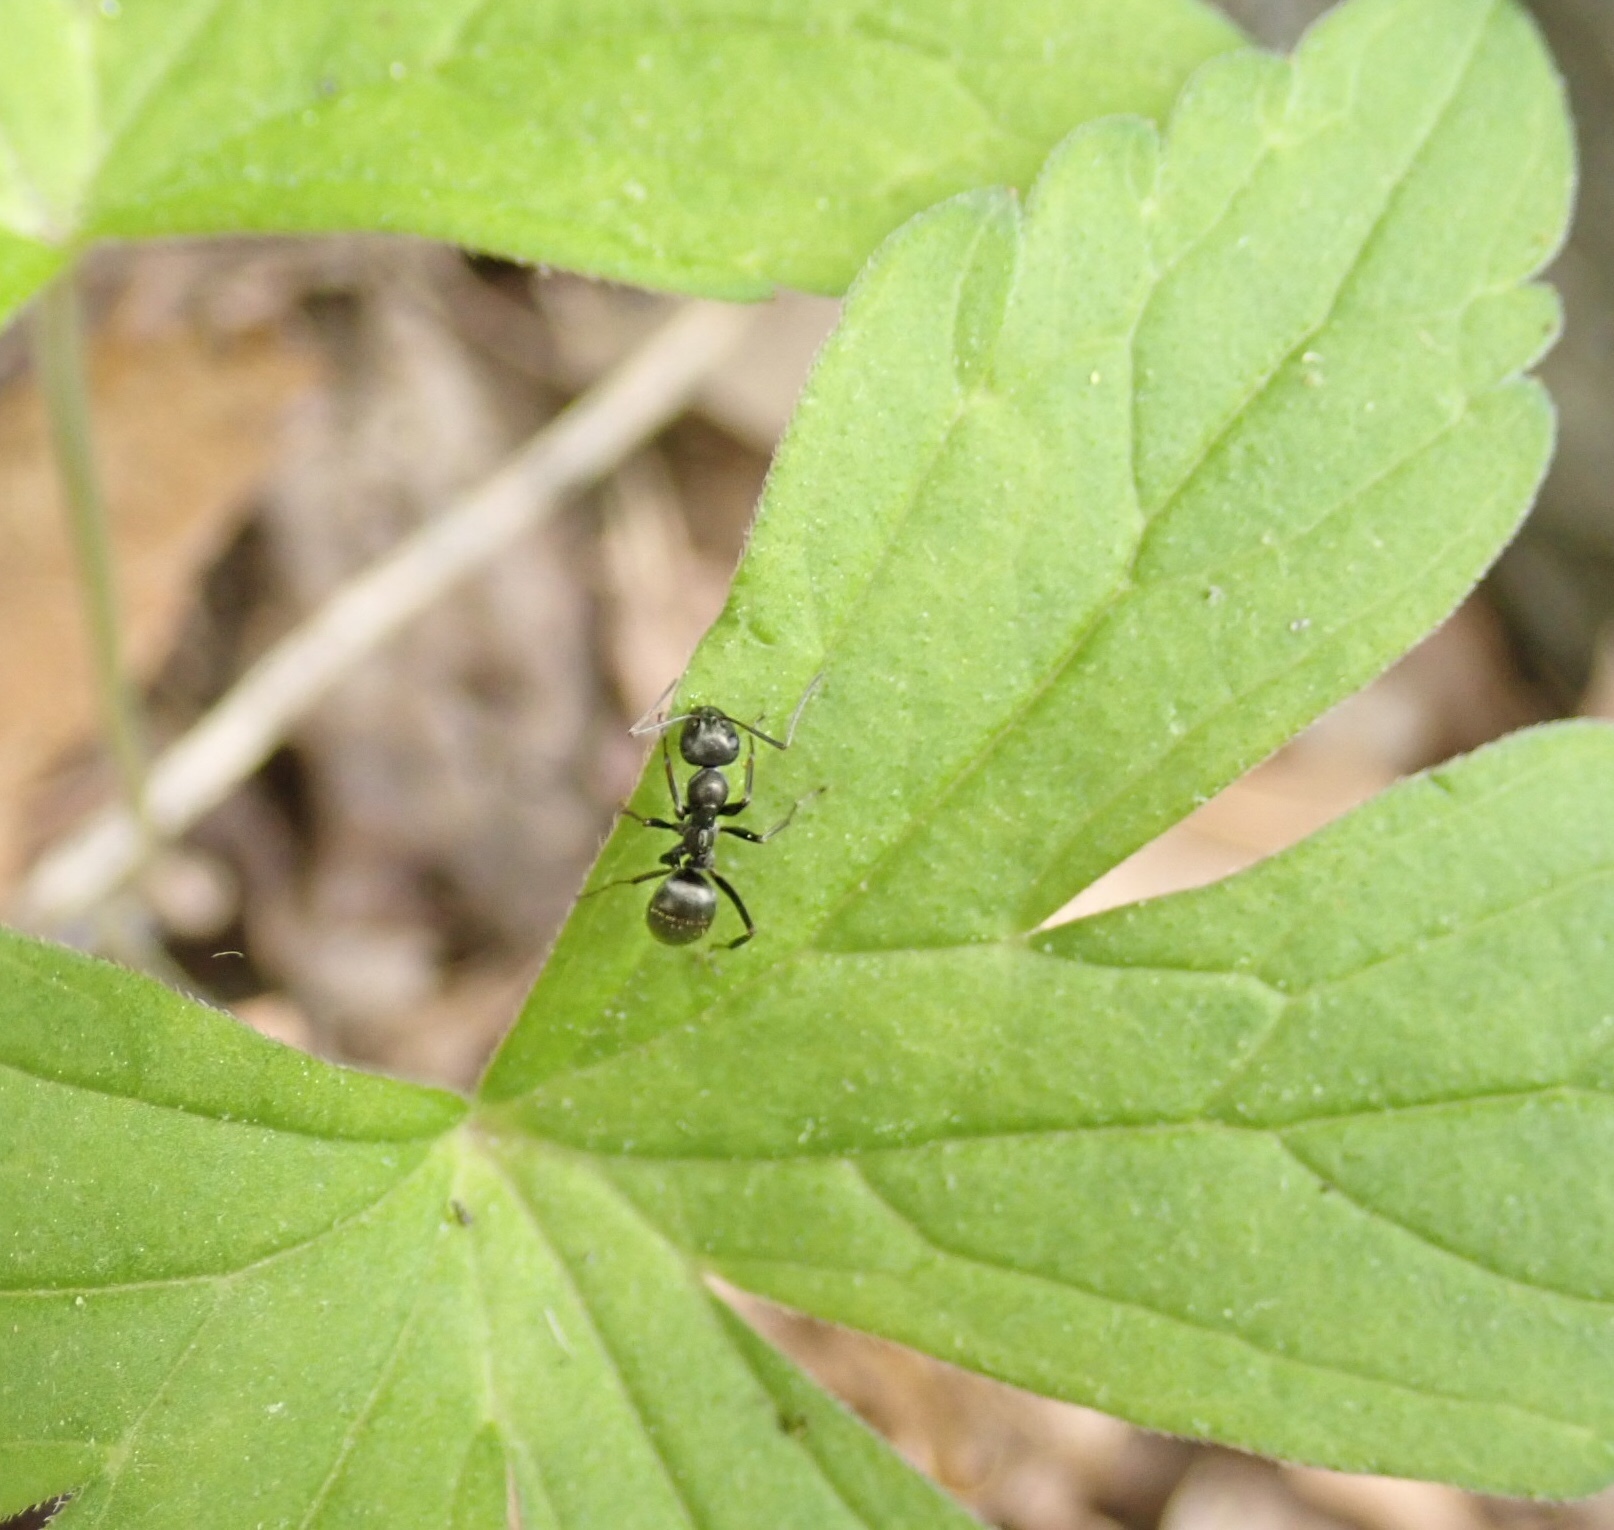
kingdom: Animalia
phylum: Arthropoda
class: Insecta
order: Hymenoptera
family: Formicidae
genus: Formica
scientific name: Formica
